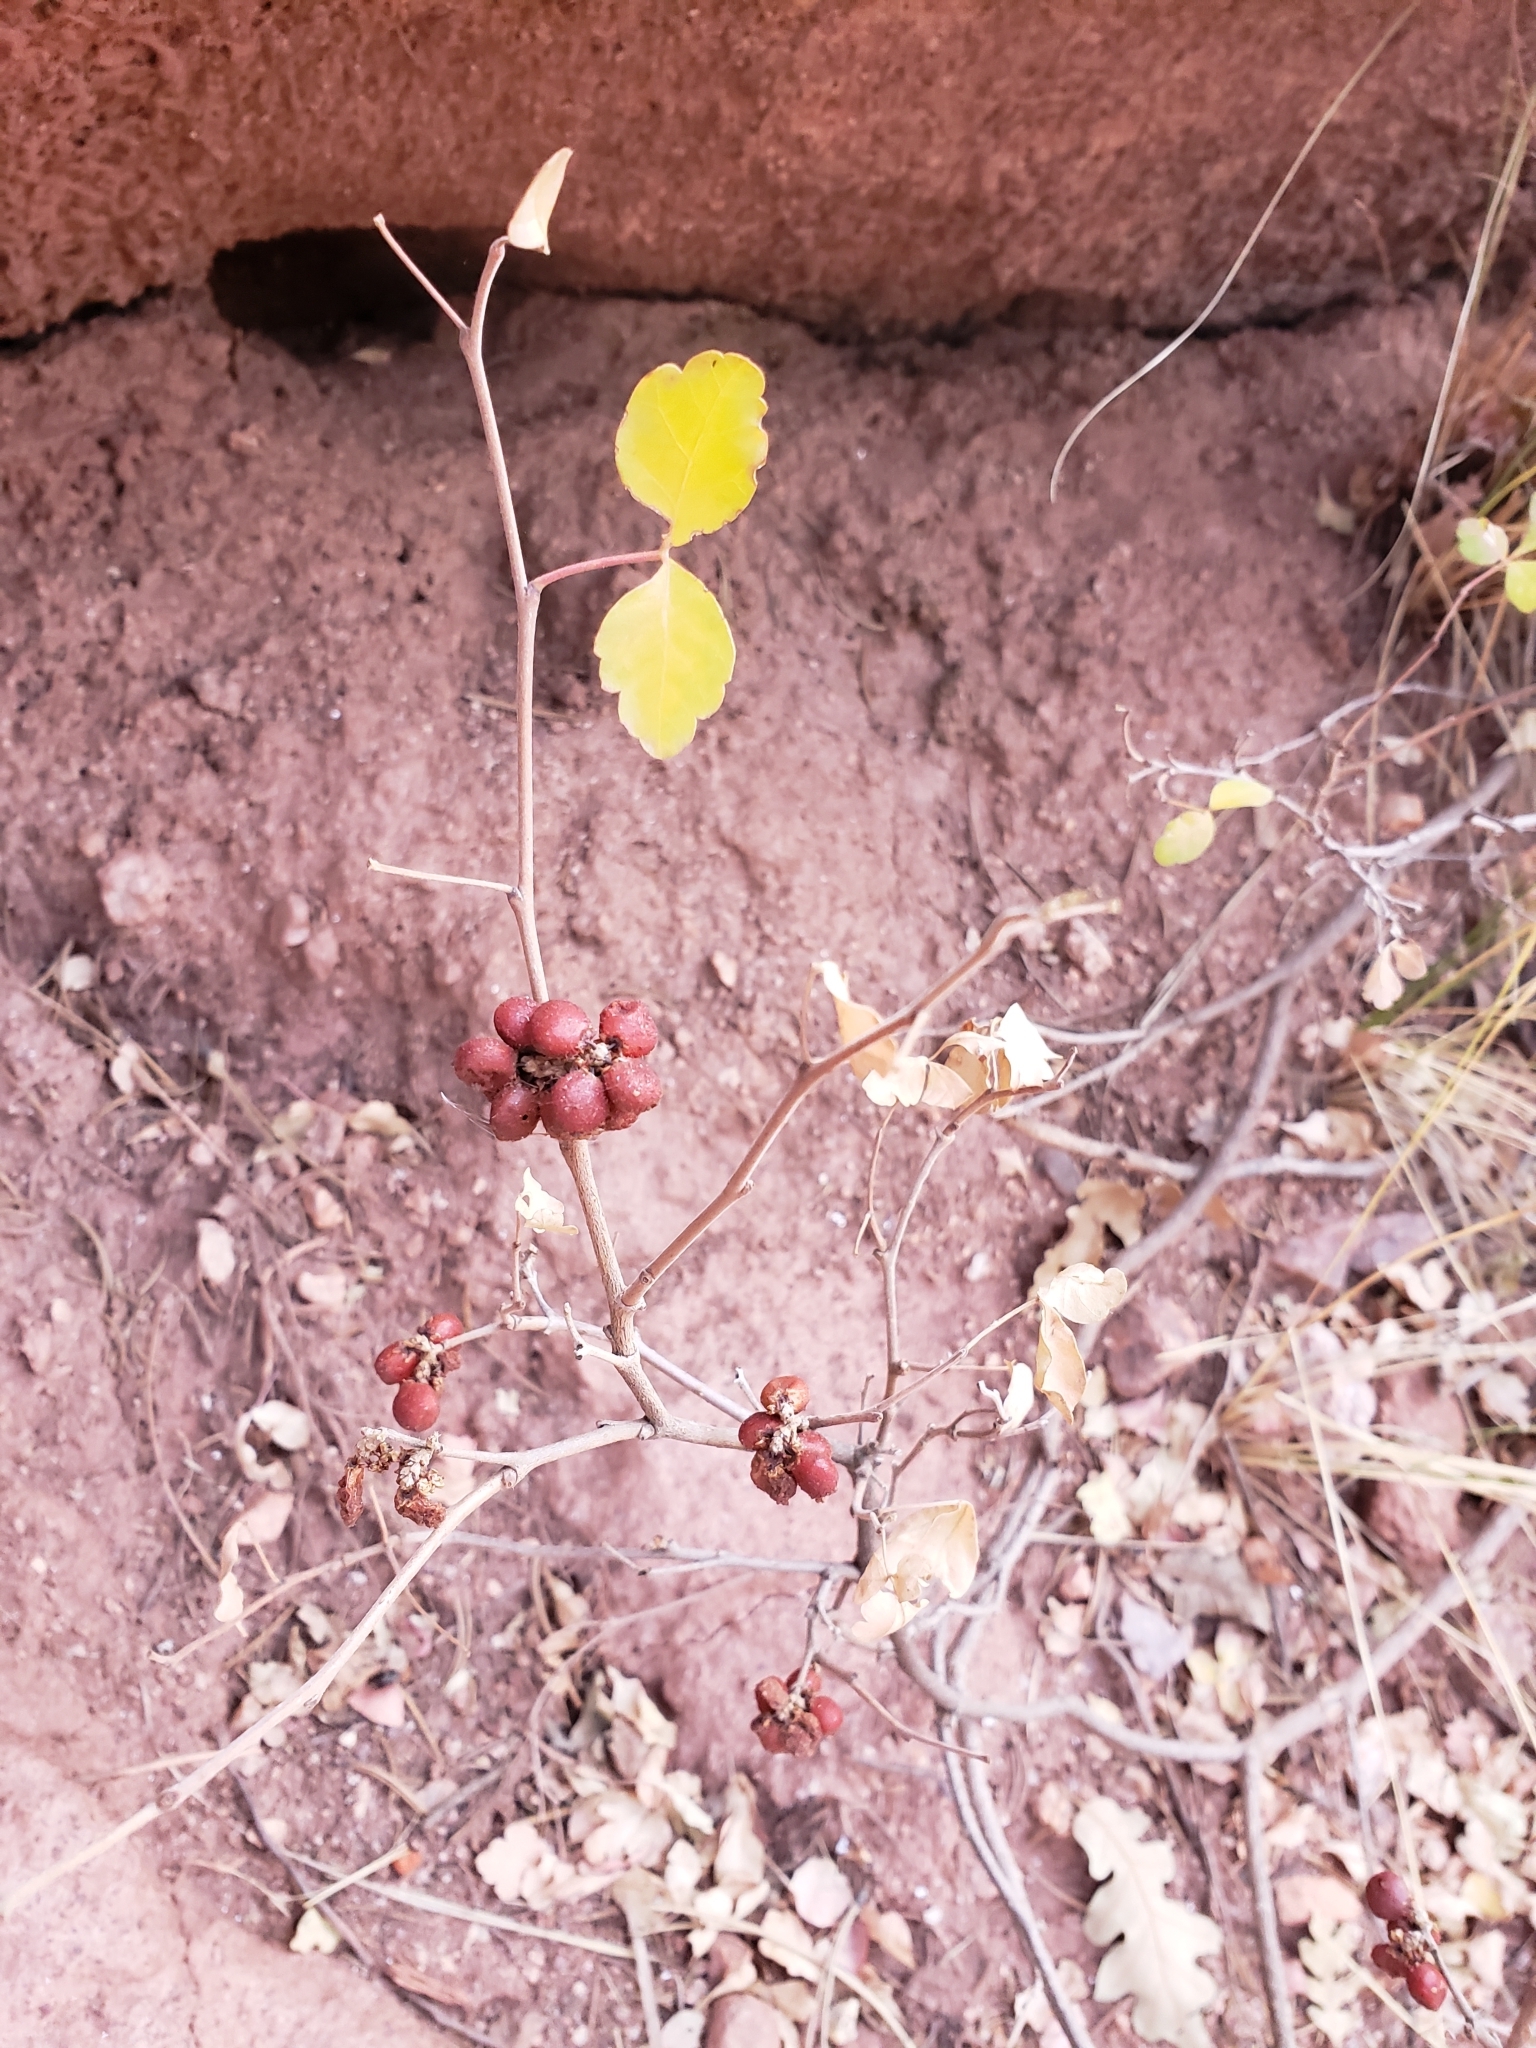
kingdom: Plantae
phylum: Tracheophyta
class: Magnoliopsida
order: Sapindales
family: Anacardiaceae
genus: Rhus
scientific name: Rhus trilobata
